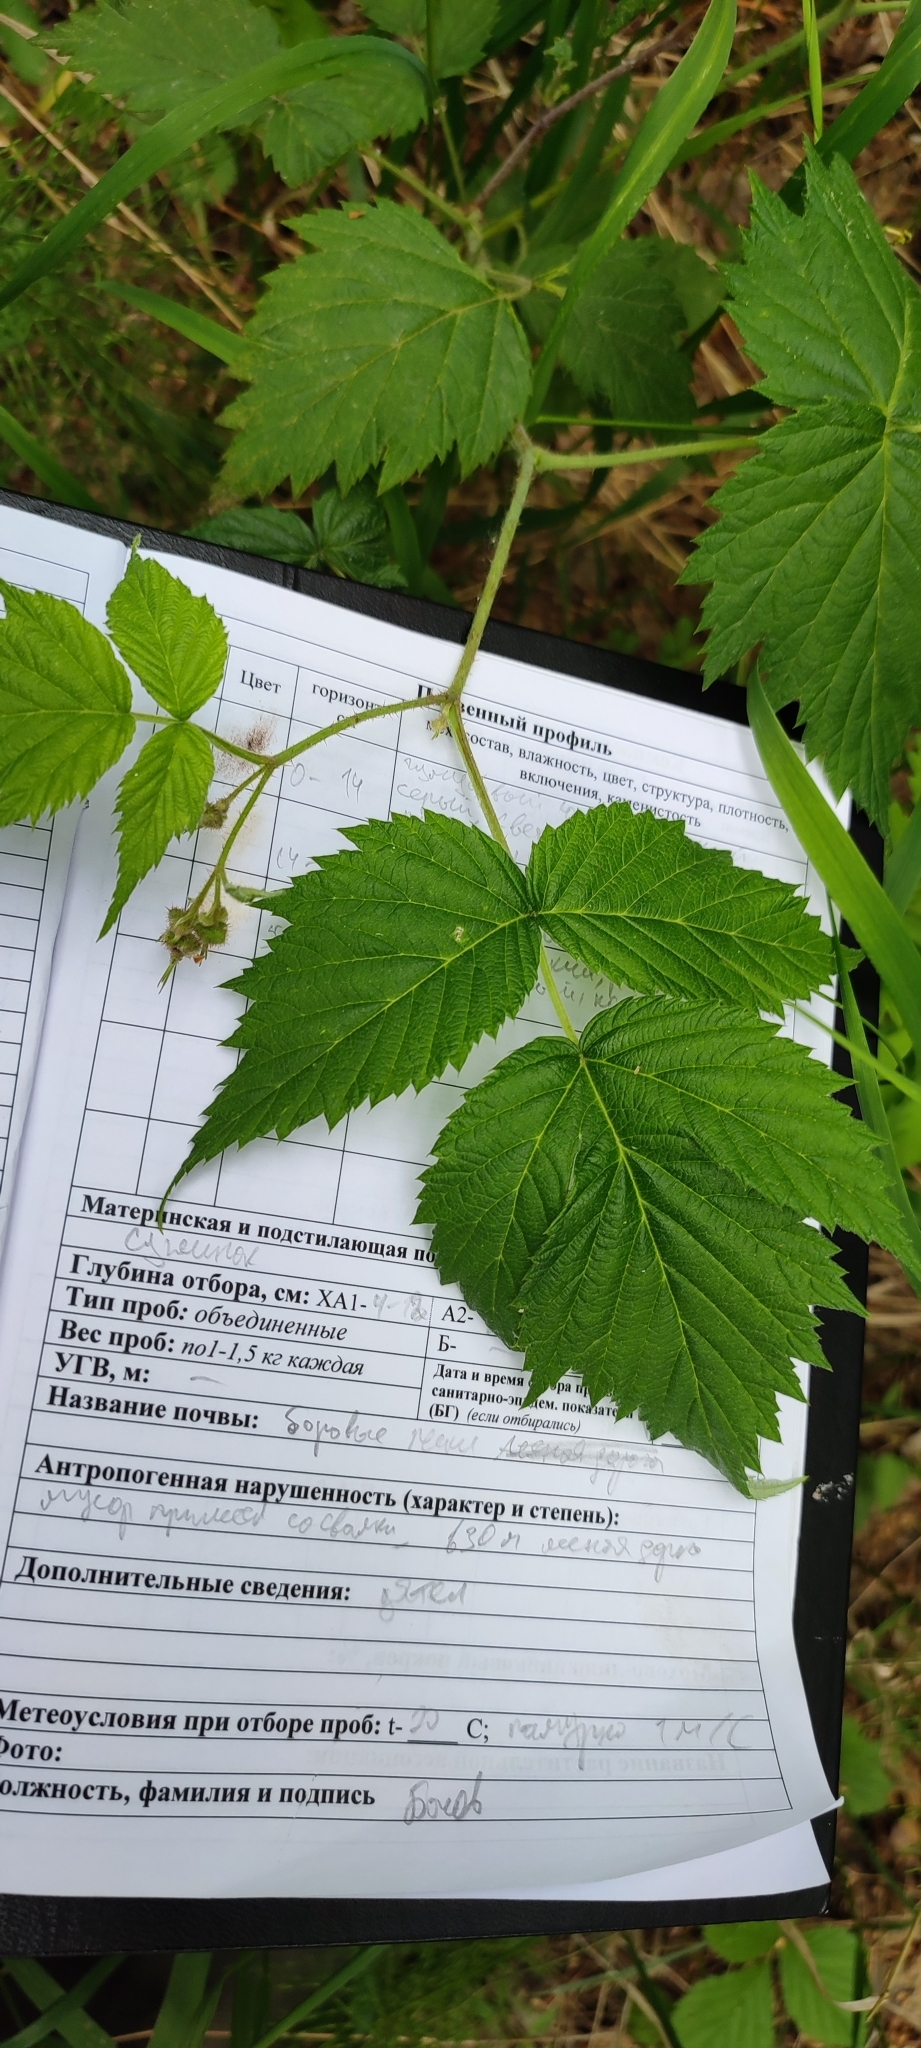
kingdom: Plantae
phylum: Tracheophyta
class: Magnoliopsida
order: Rosales
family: Rosaceae
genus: Rubus
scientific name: Rubus idaeus
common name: Raspberry
